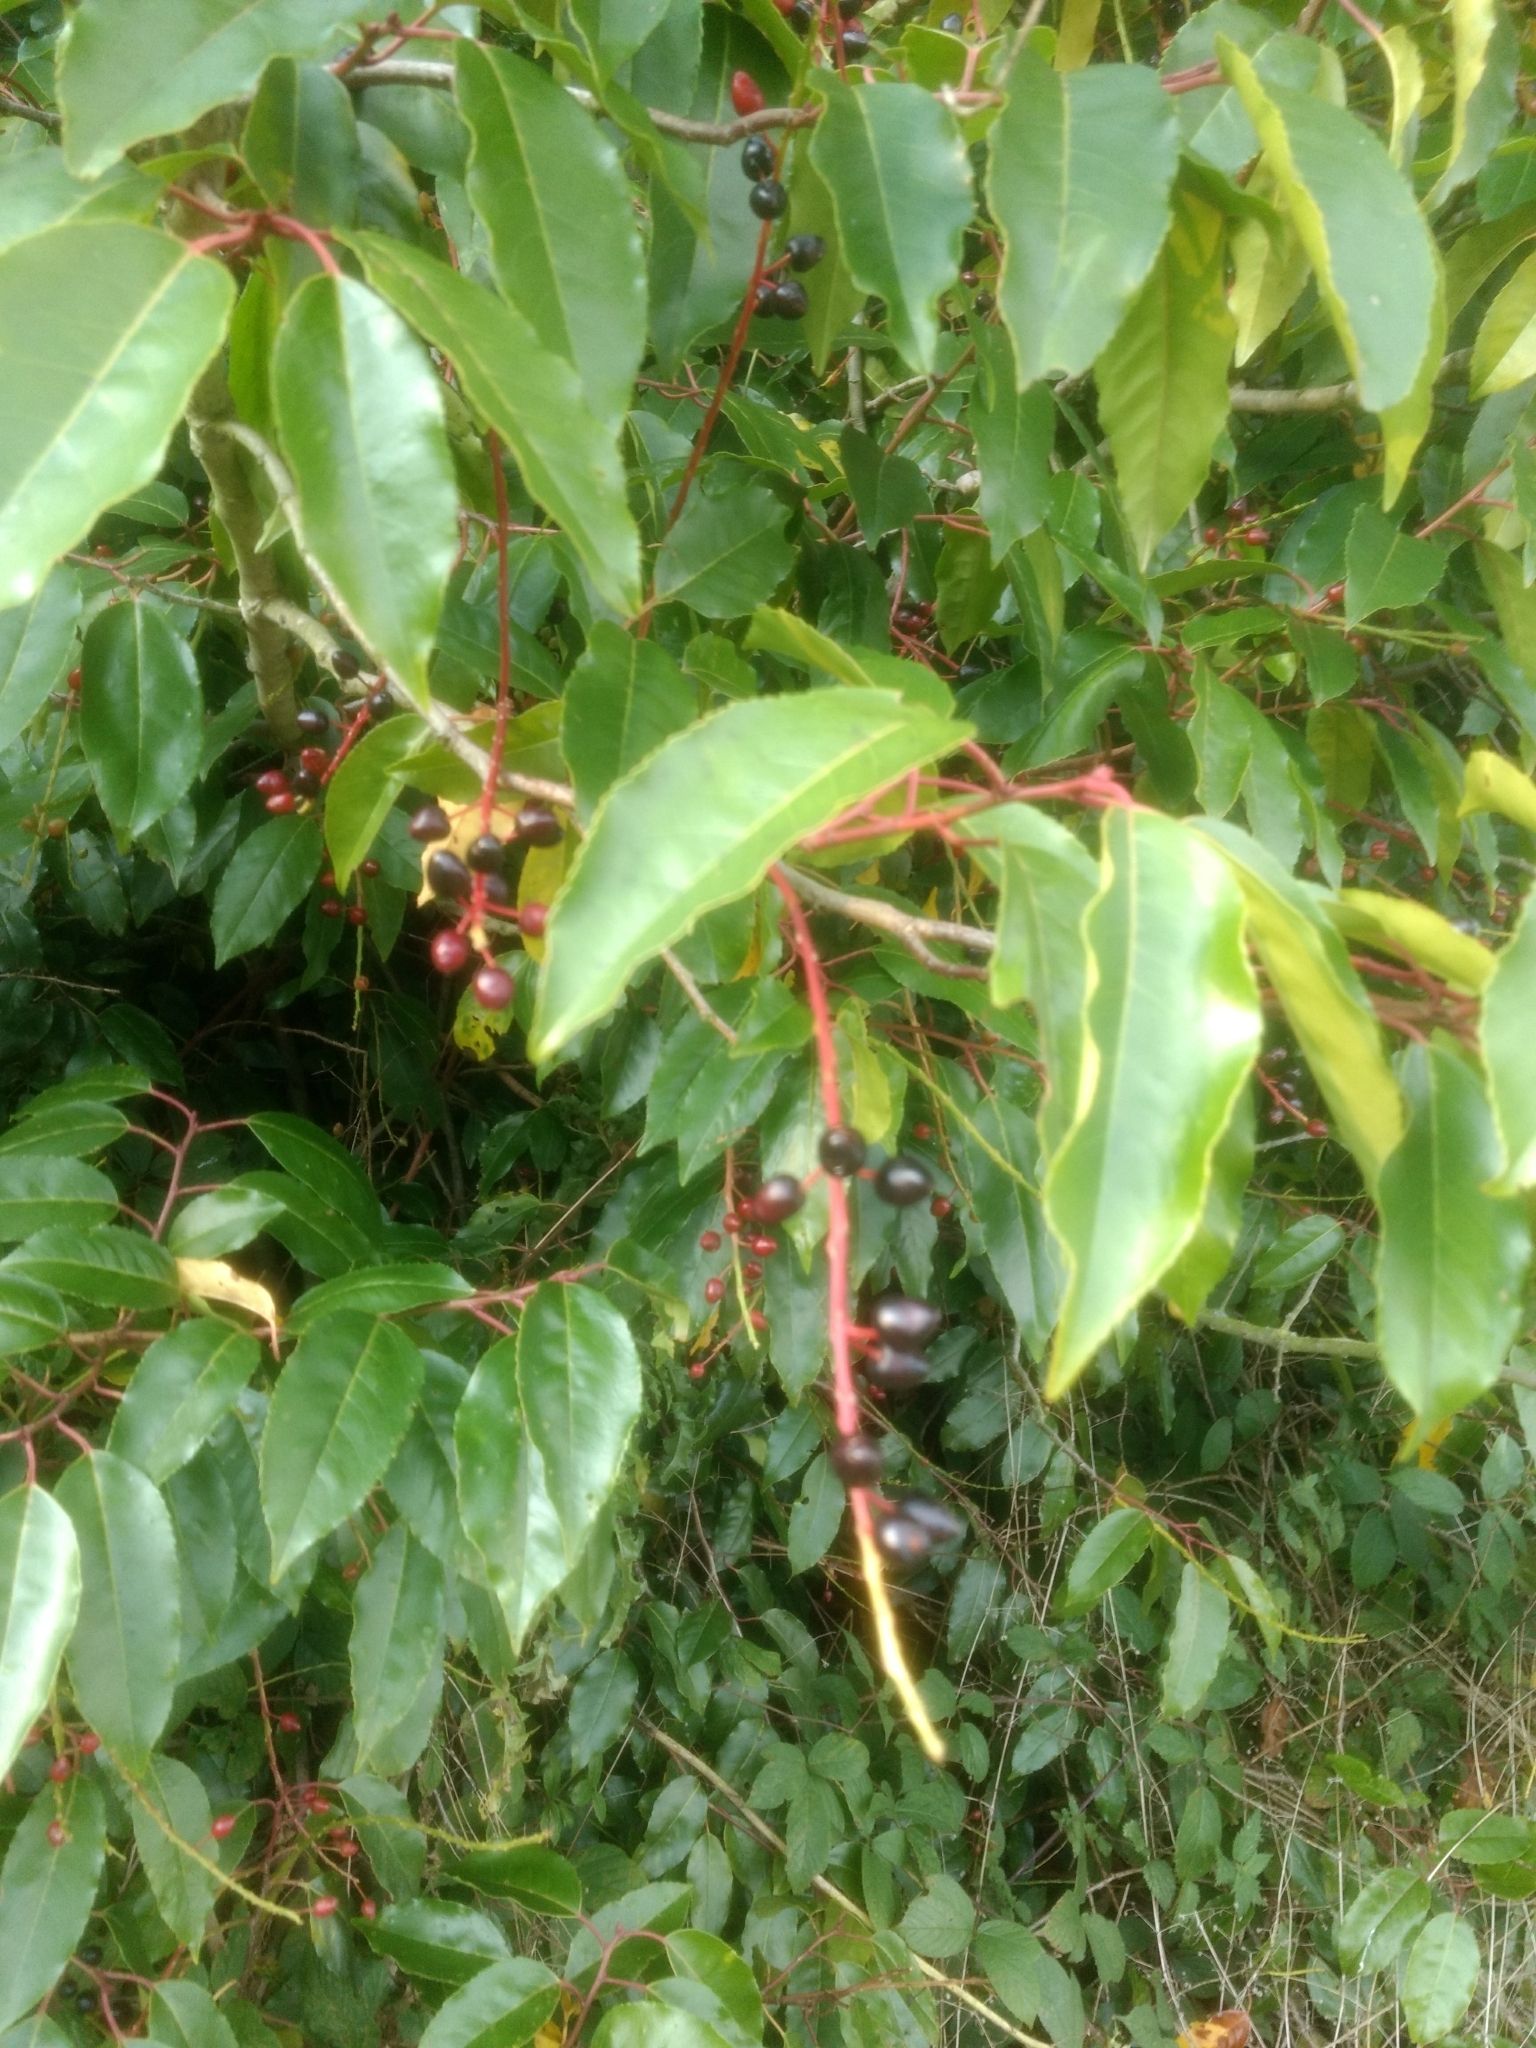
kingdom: Plantae
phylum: Tracheophyta
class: Magnoliopsida
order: Rosales
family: Rosaceae
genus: Prunus
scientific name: Prunus lusitanica
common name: Portugal laurel
